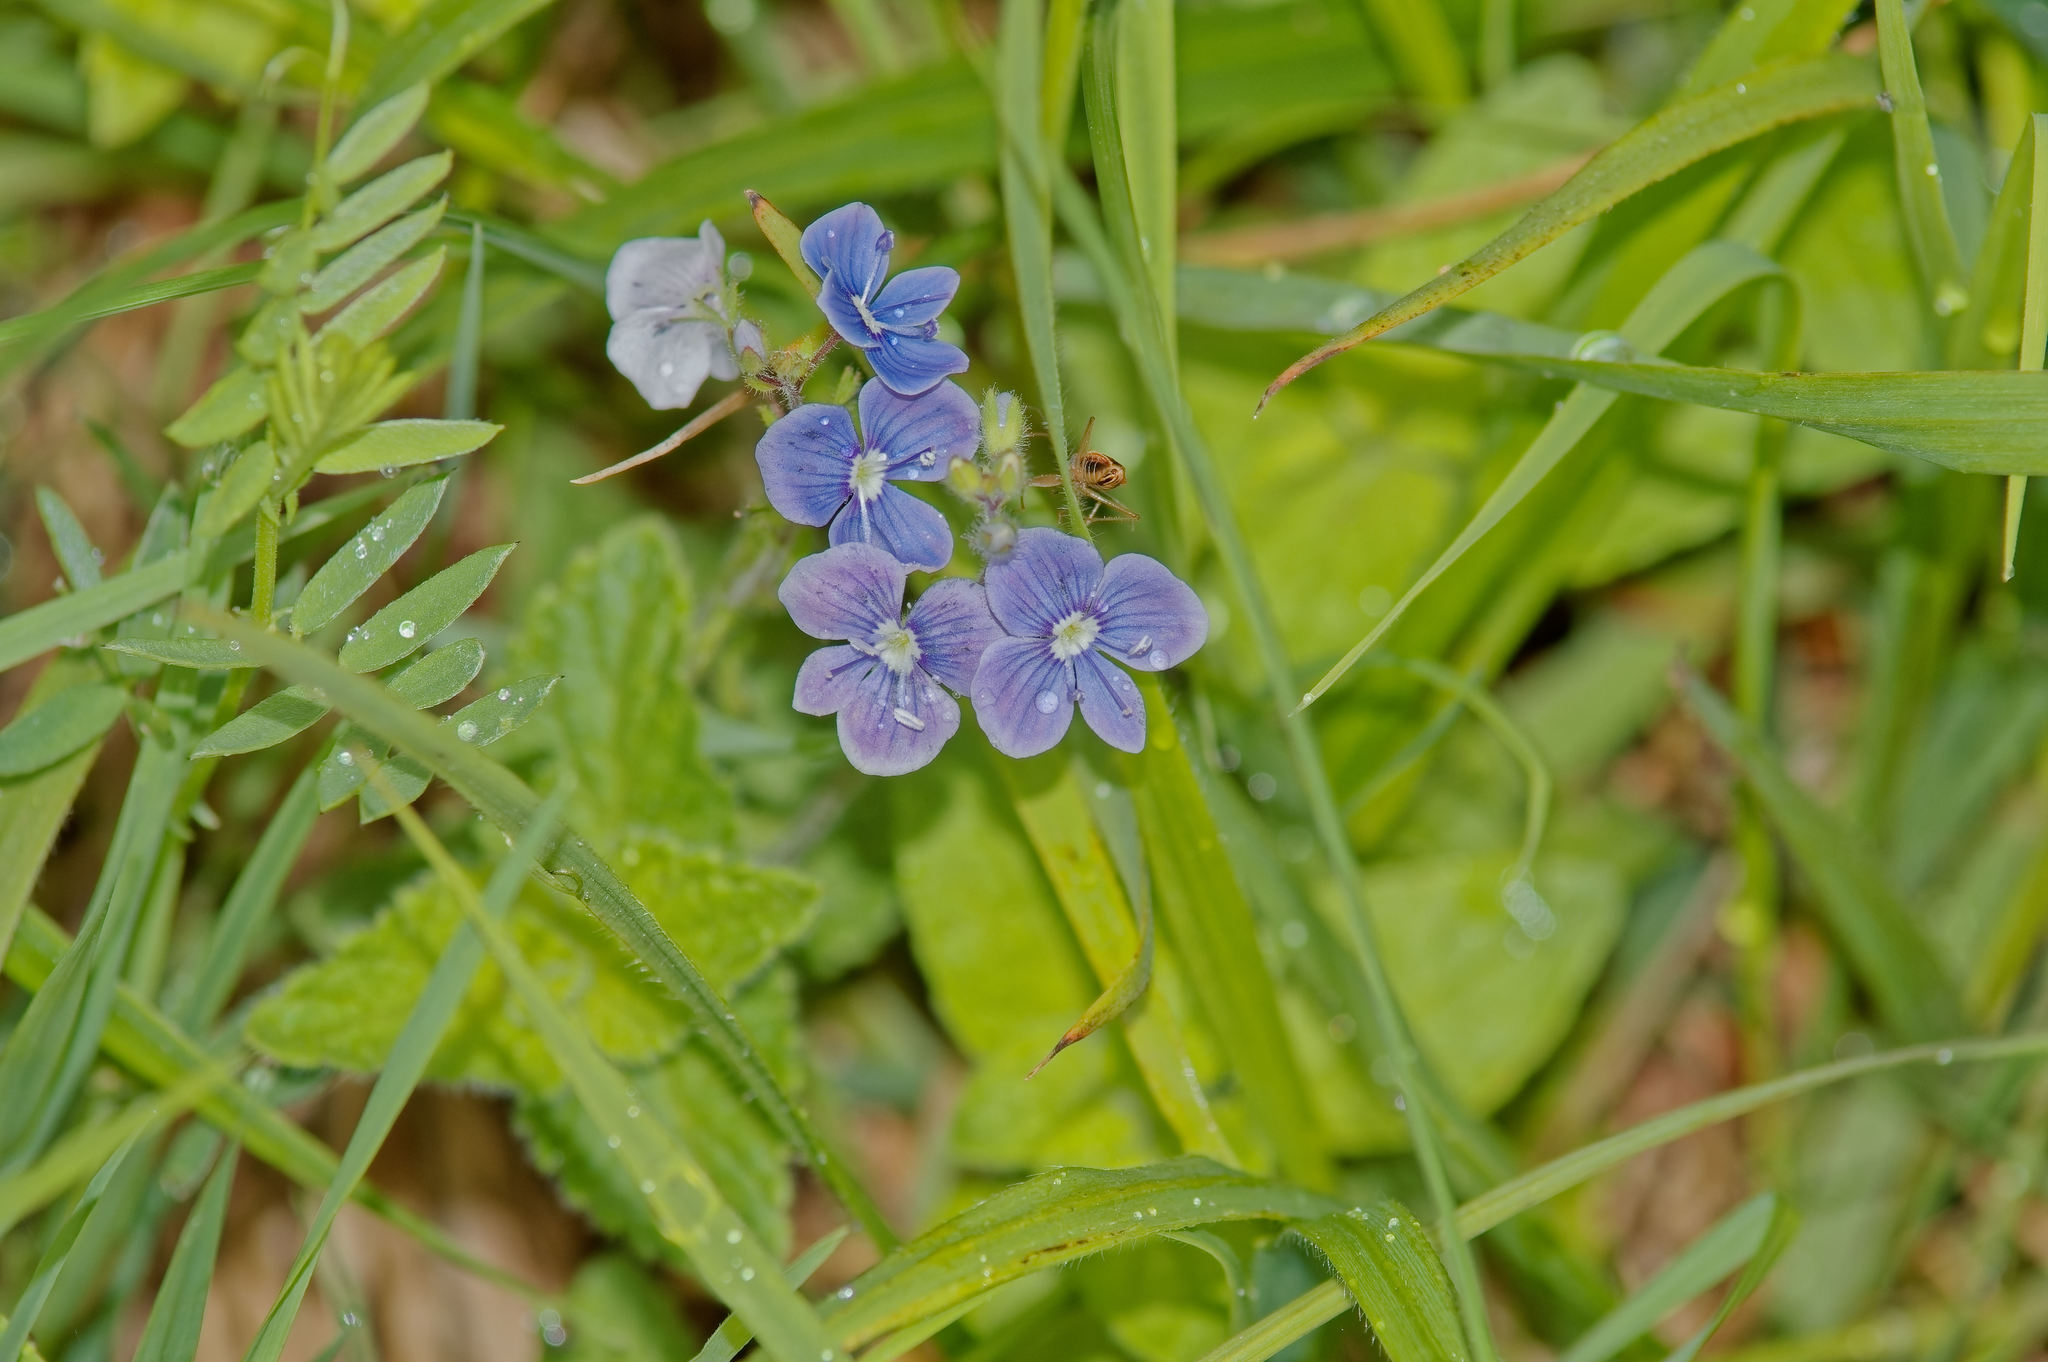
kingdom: Plantae
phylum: Tracheophyta
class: Magnoliopsida
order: Lamiales
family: Plantaginaceae
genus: Veronica
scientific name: Veronica chamaedrys
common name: Germander speedwell
